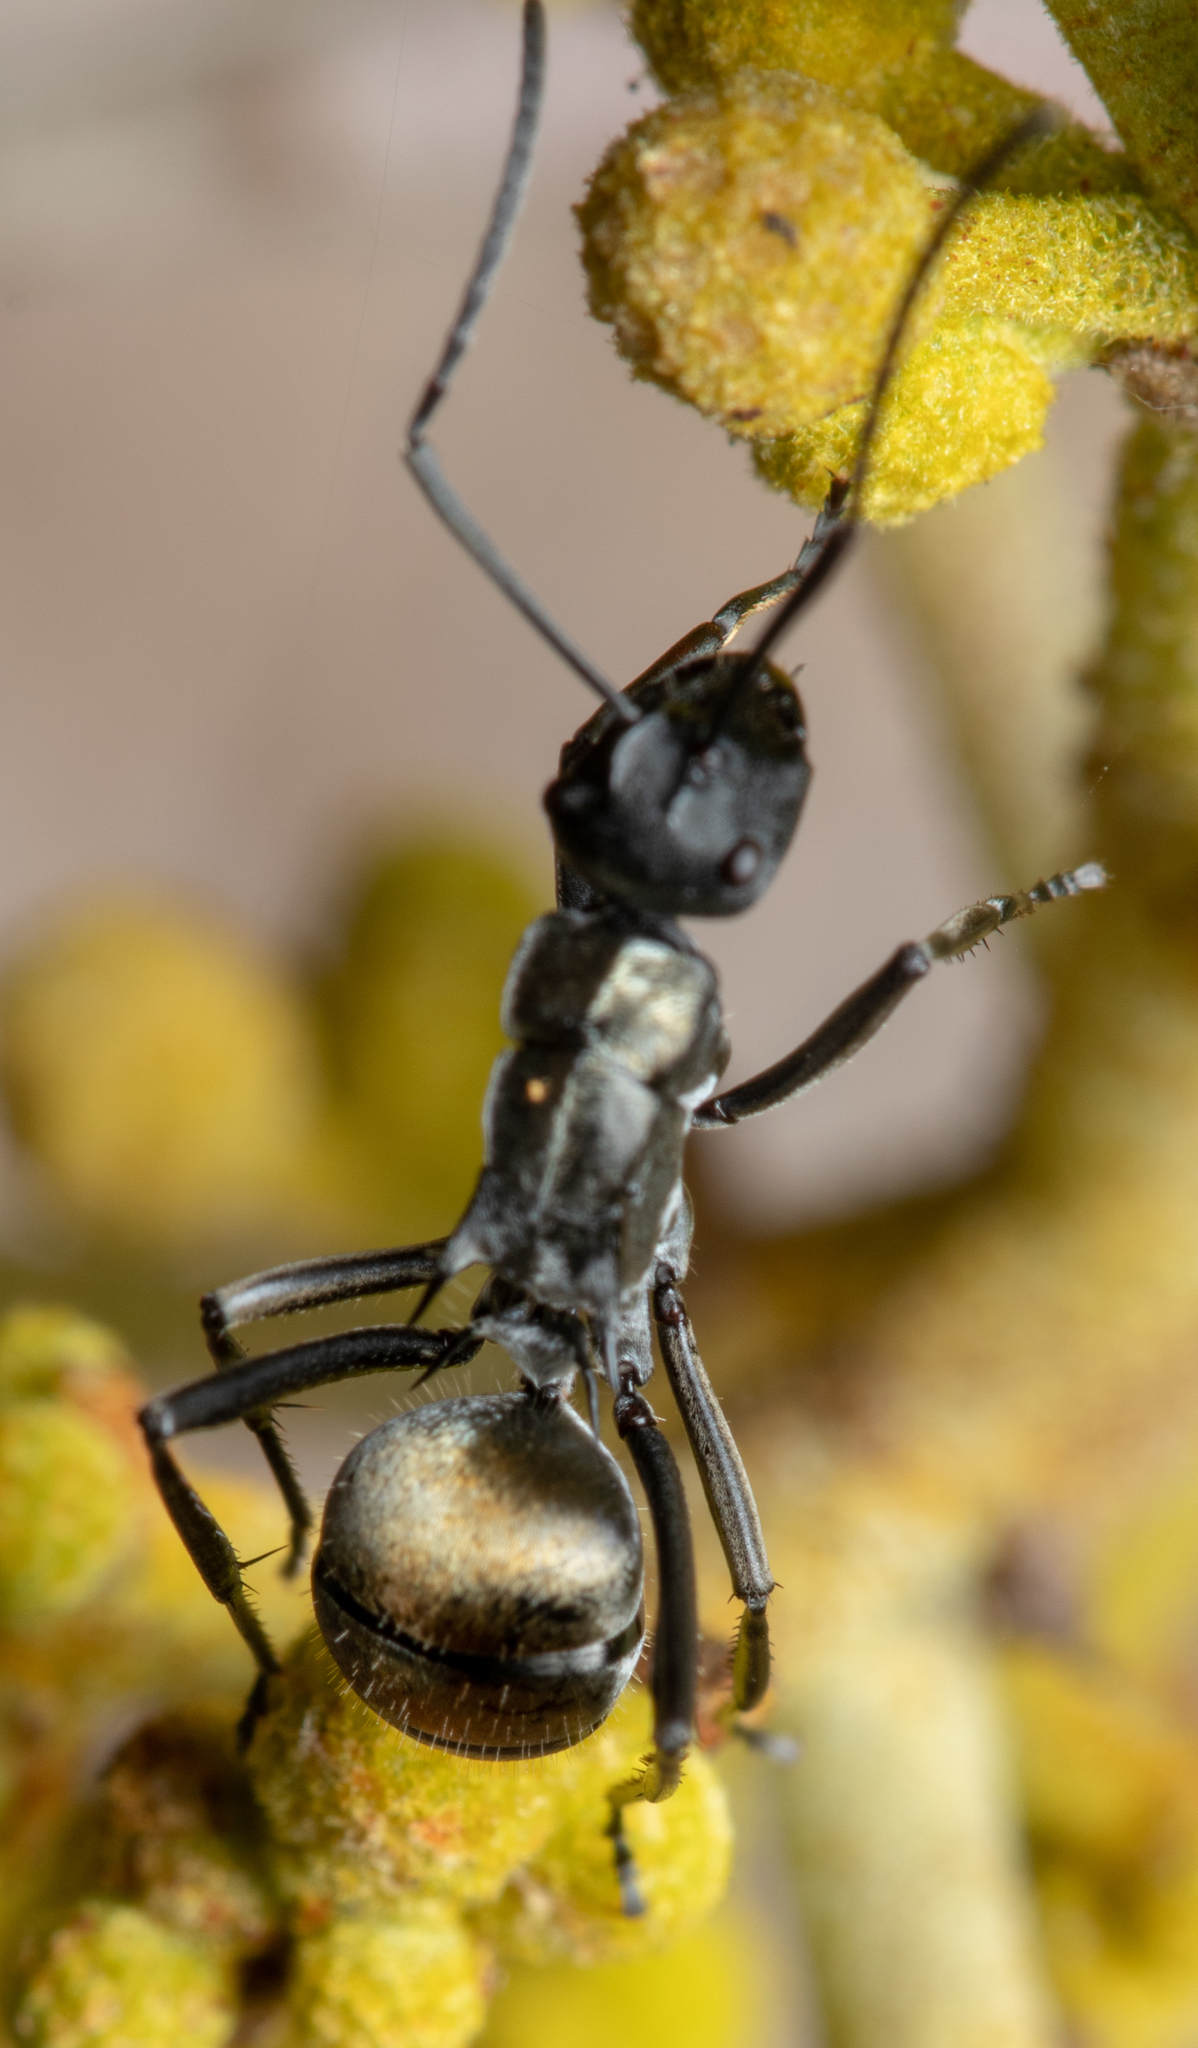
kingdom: Animalia
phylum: Arthropoda
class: Insecta
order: Hymenoptera
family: Formicidae
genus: Polyrhachis
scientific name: Polyrhachis ammon
